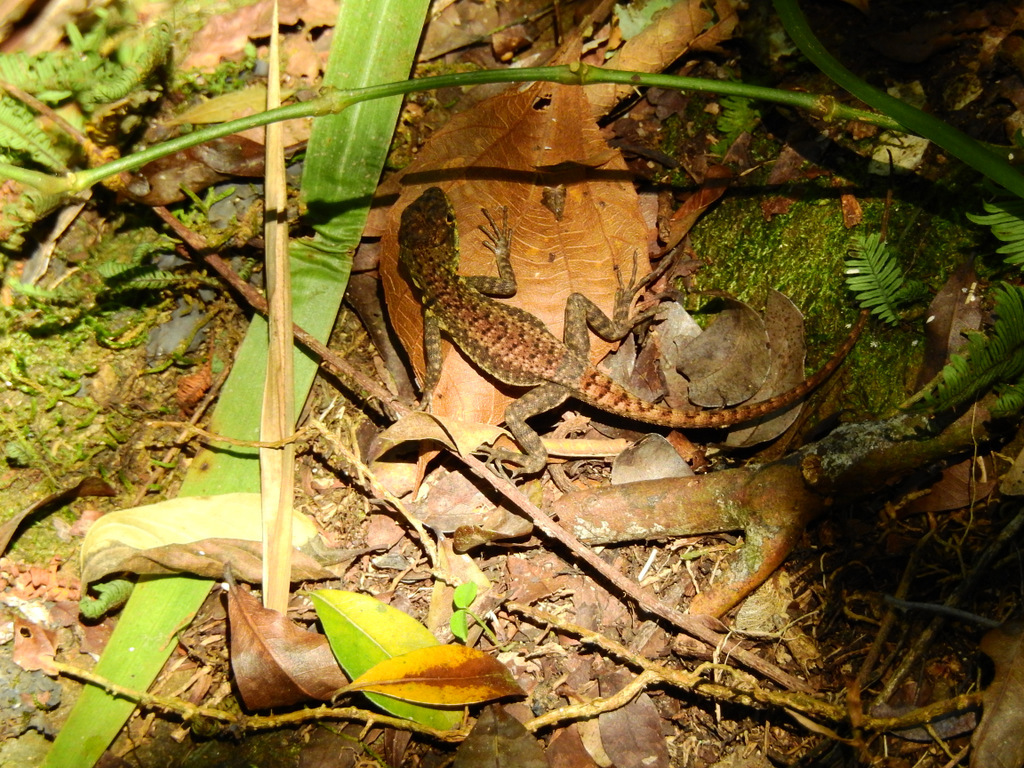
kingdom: Animalia
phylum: Chordata
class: Squamata
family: Tropiduridae
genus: Tropidurus
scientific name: Tropidurus catalanensis
